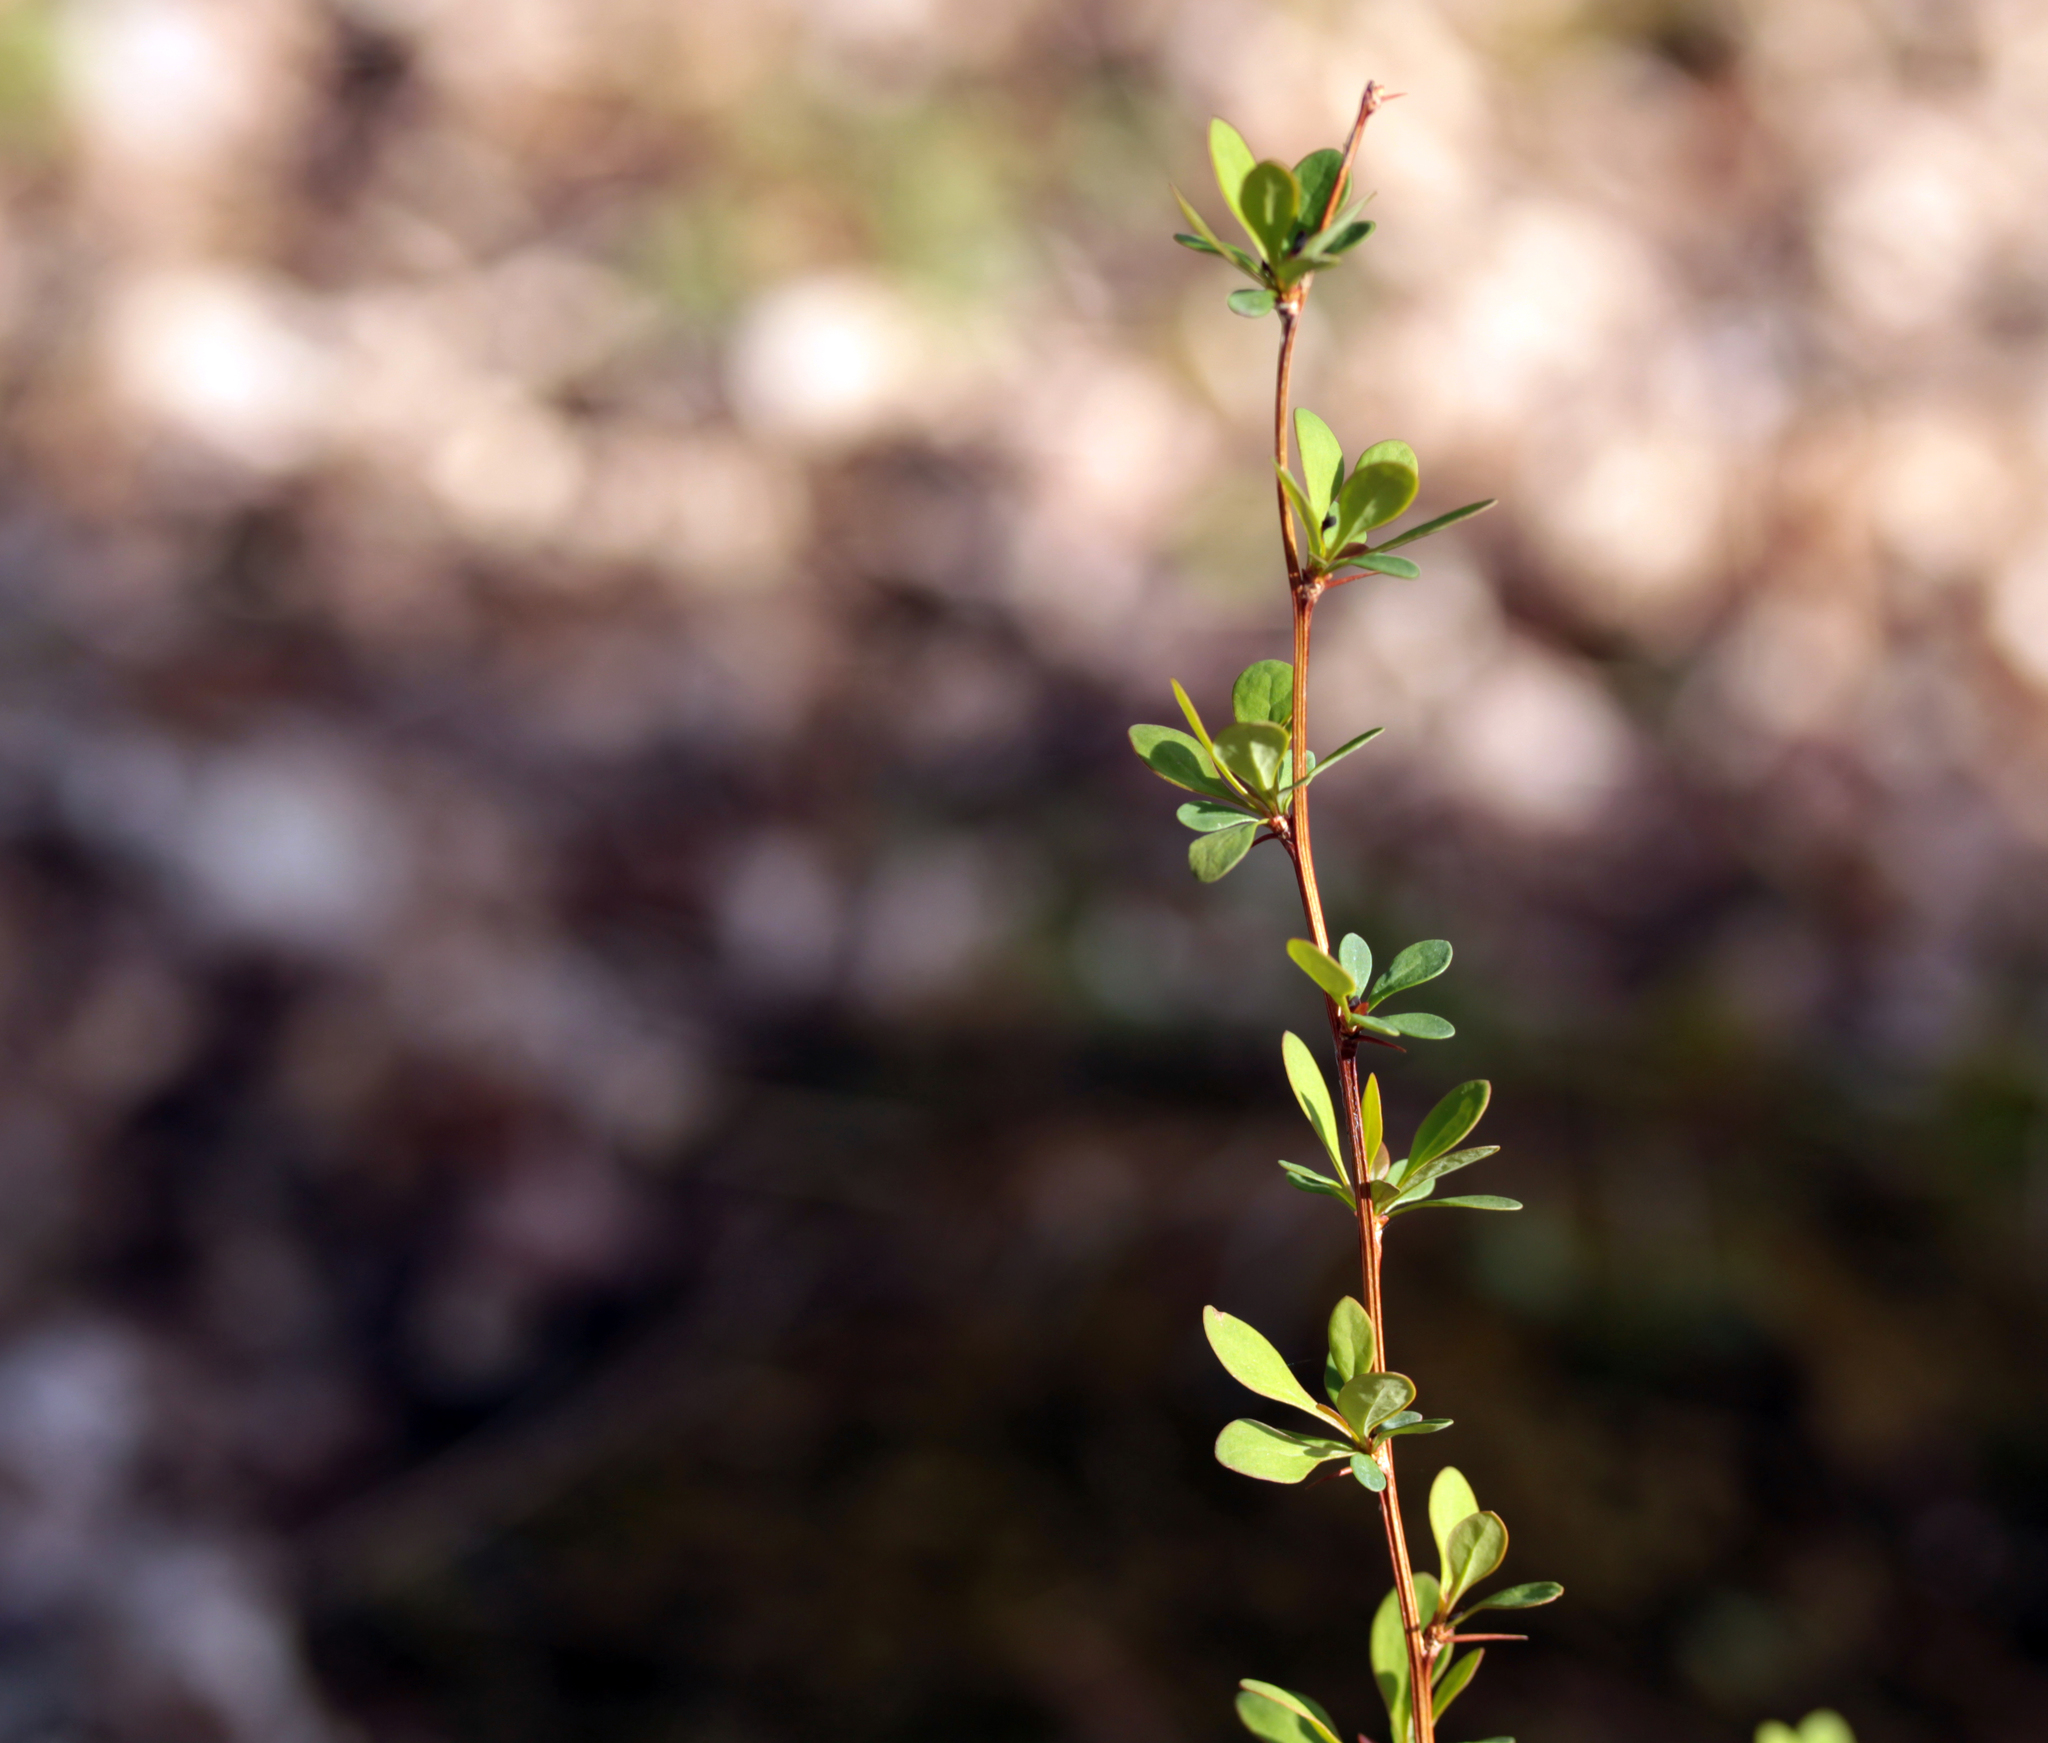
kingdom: Plantae
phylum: Tracheophyta
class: Magnoliopsida
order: Ranunculales
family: Berberidaceae
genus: Berberis
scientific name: Berberis thunbergii
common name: Japanese barberry
